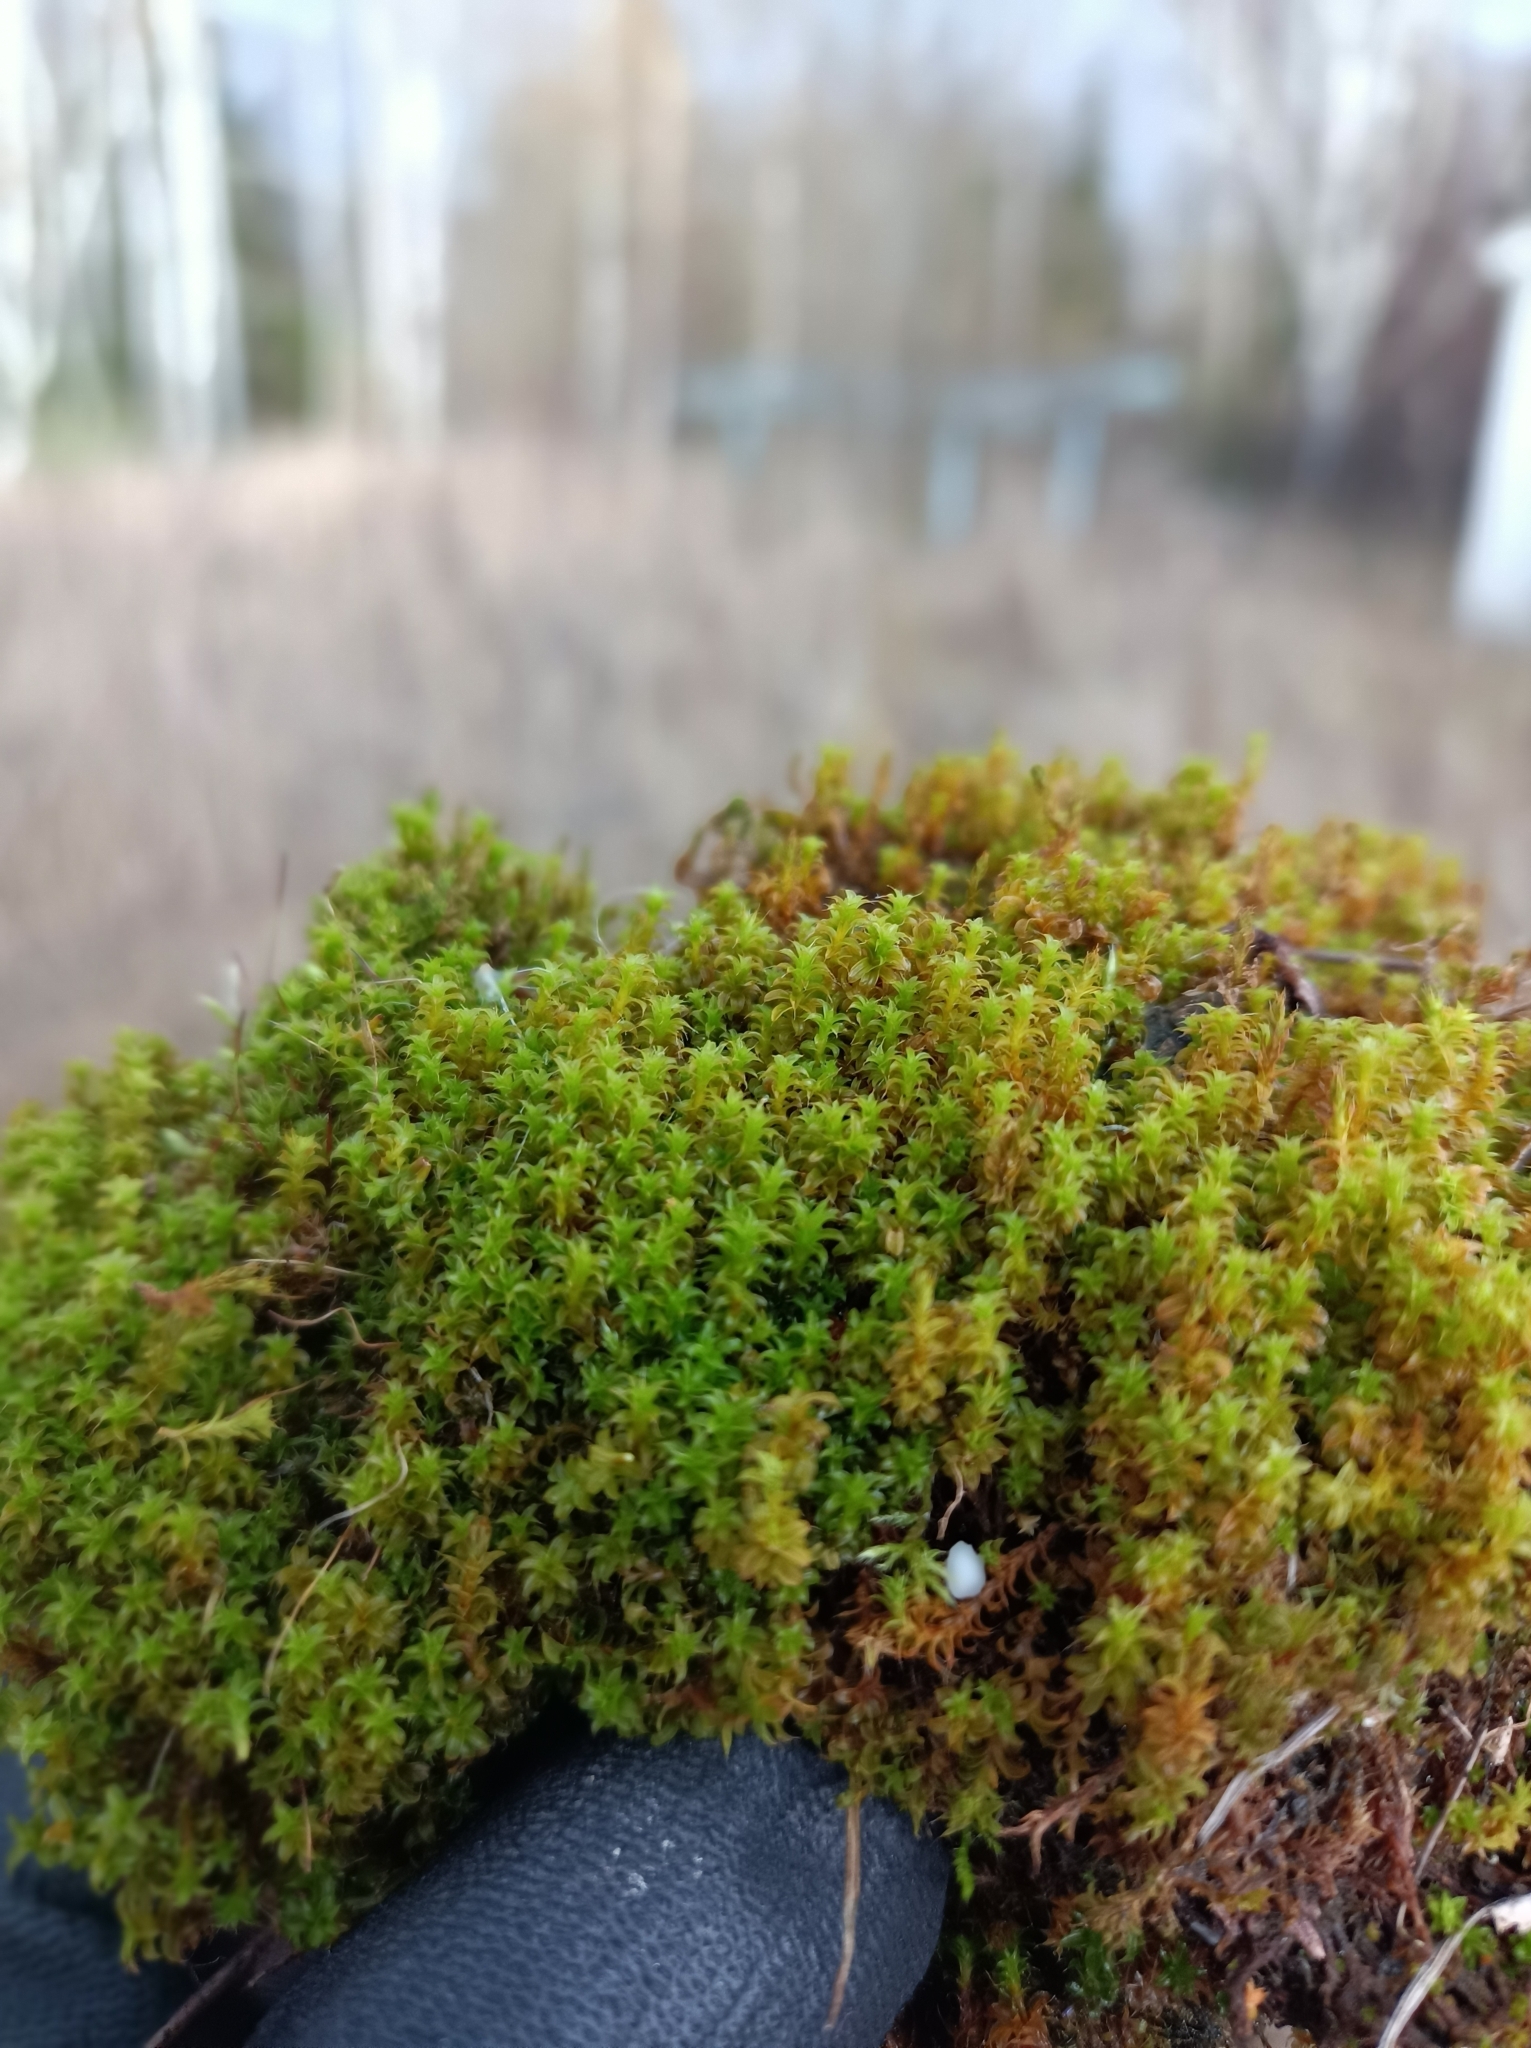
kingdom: Plantae
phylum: Bryophyta
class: Bryopsida
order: Pottiales
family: Pottiaceae
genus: Syntrichia
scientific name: Syntrichia ruralis
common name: Sidewalk screw moss
